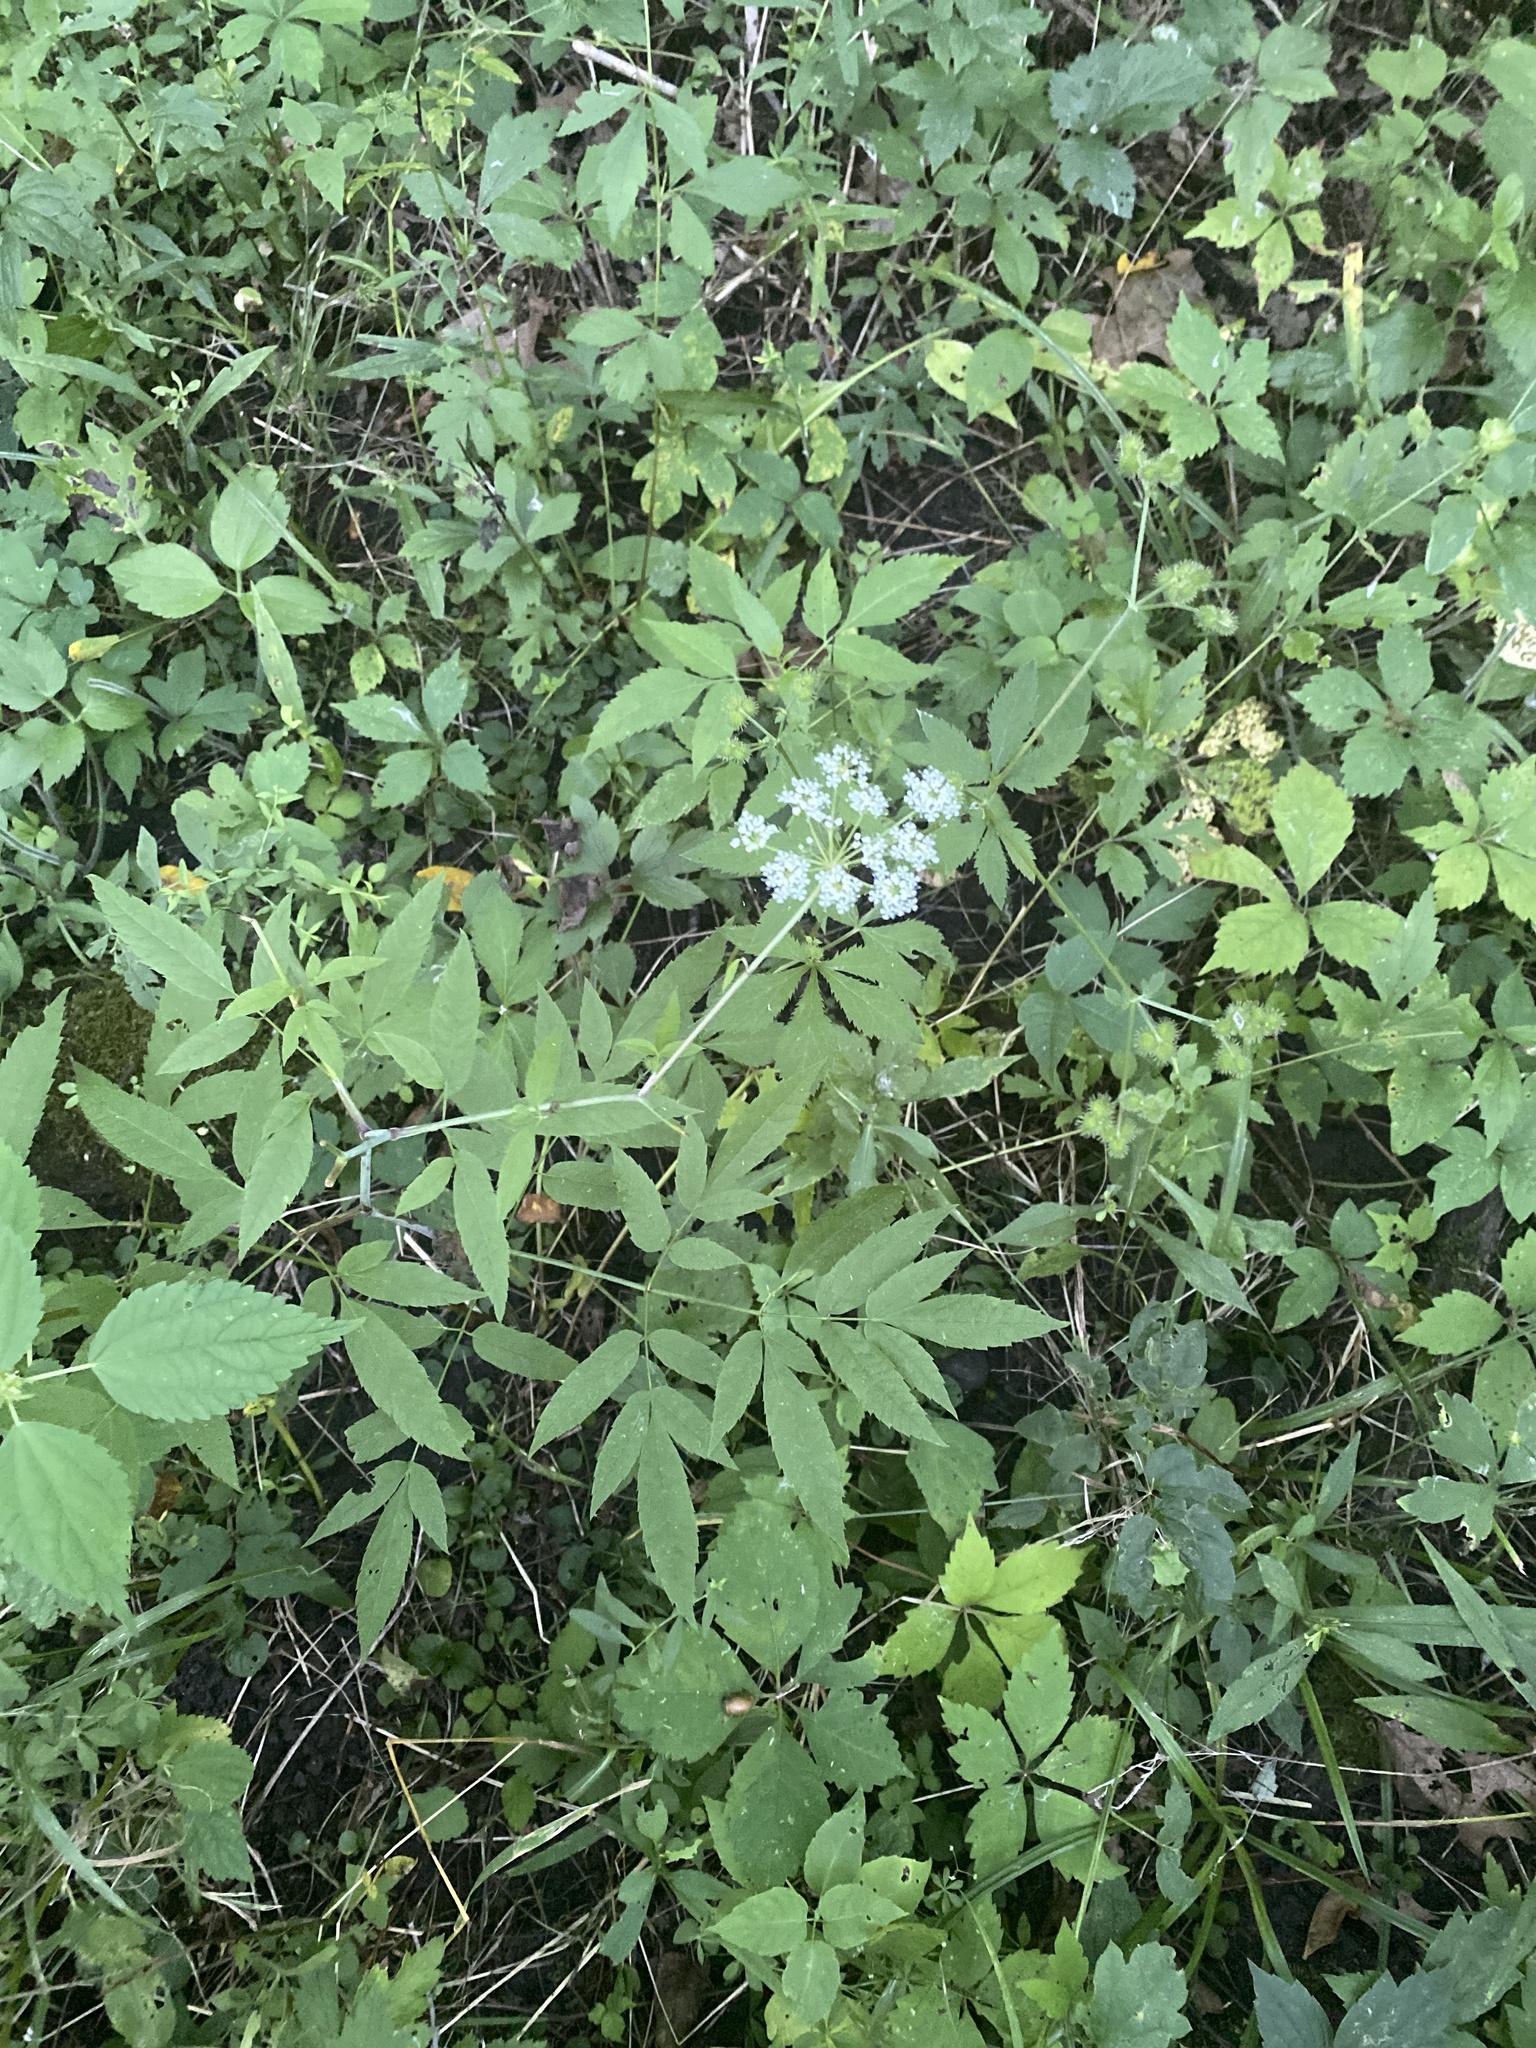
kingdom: Plantae
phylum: Tracheophyta
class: Magnoliopsida
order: Apiales
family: Apiaceae
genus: Cicuta
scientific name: Cicuta maculata
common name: Spotted cowbane
